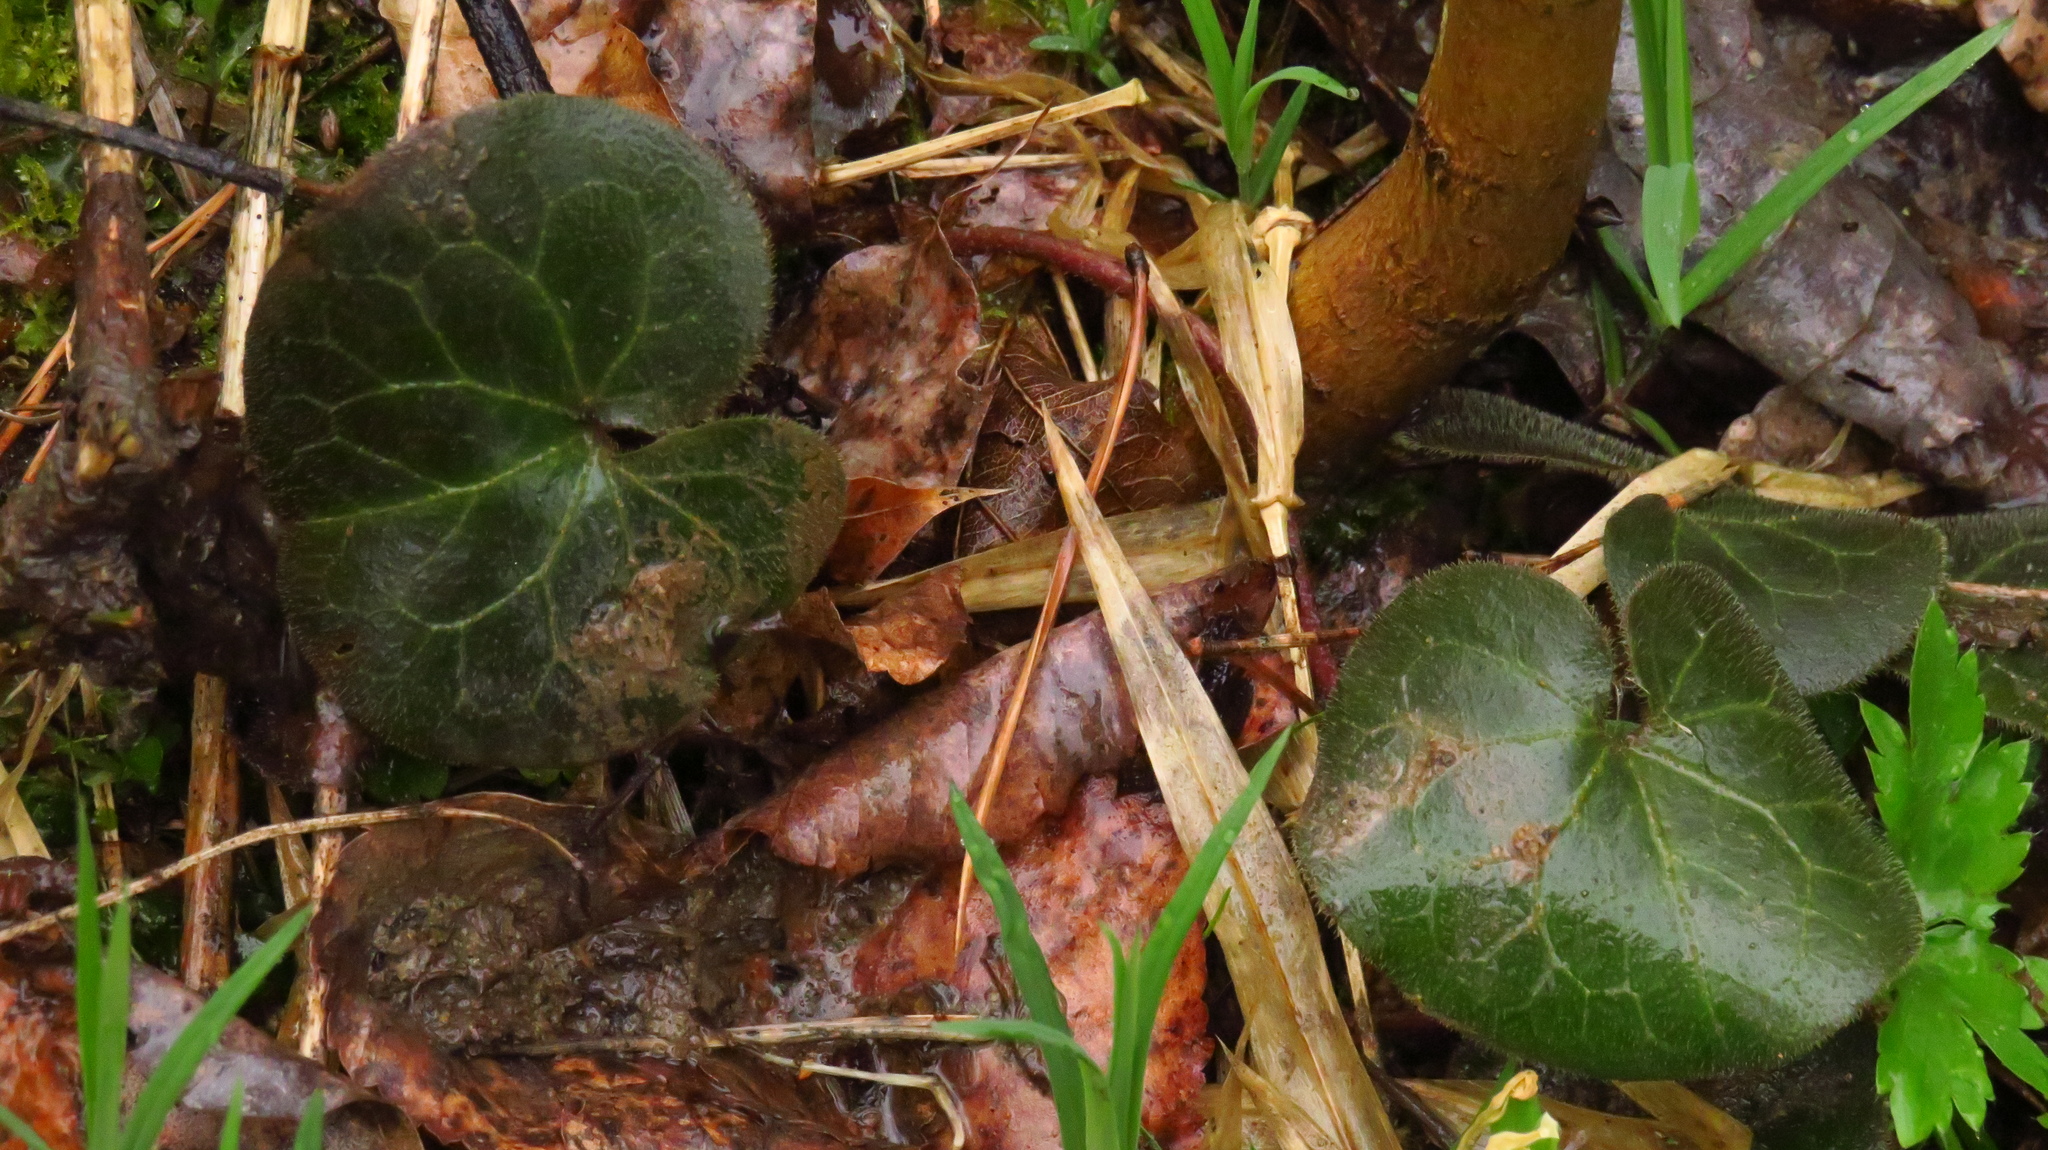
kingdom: Plantae
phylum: Tracheophyta
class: Magnoliopsida
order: Piperales
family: Aristolochiaceae
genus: Asarum
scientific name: Asarum europaeum
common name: Asarabacca
